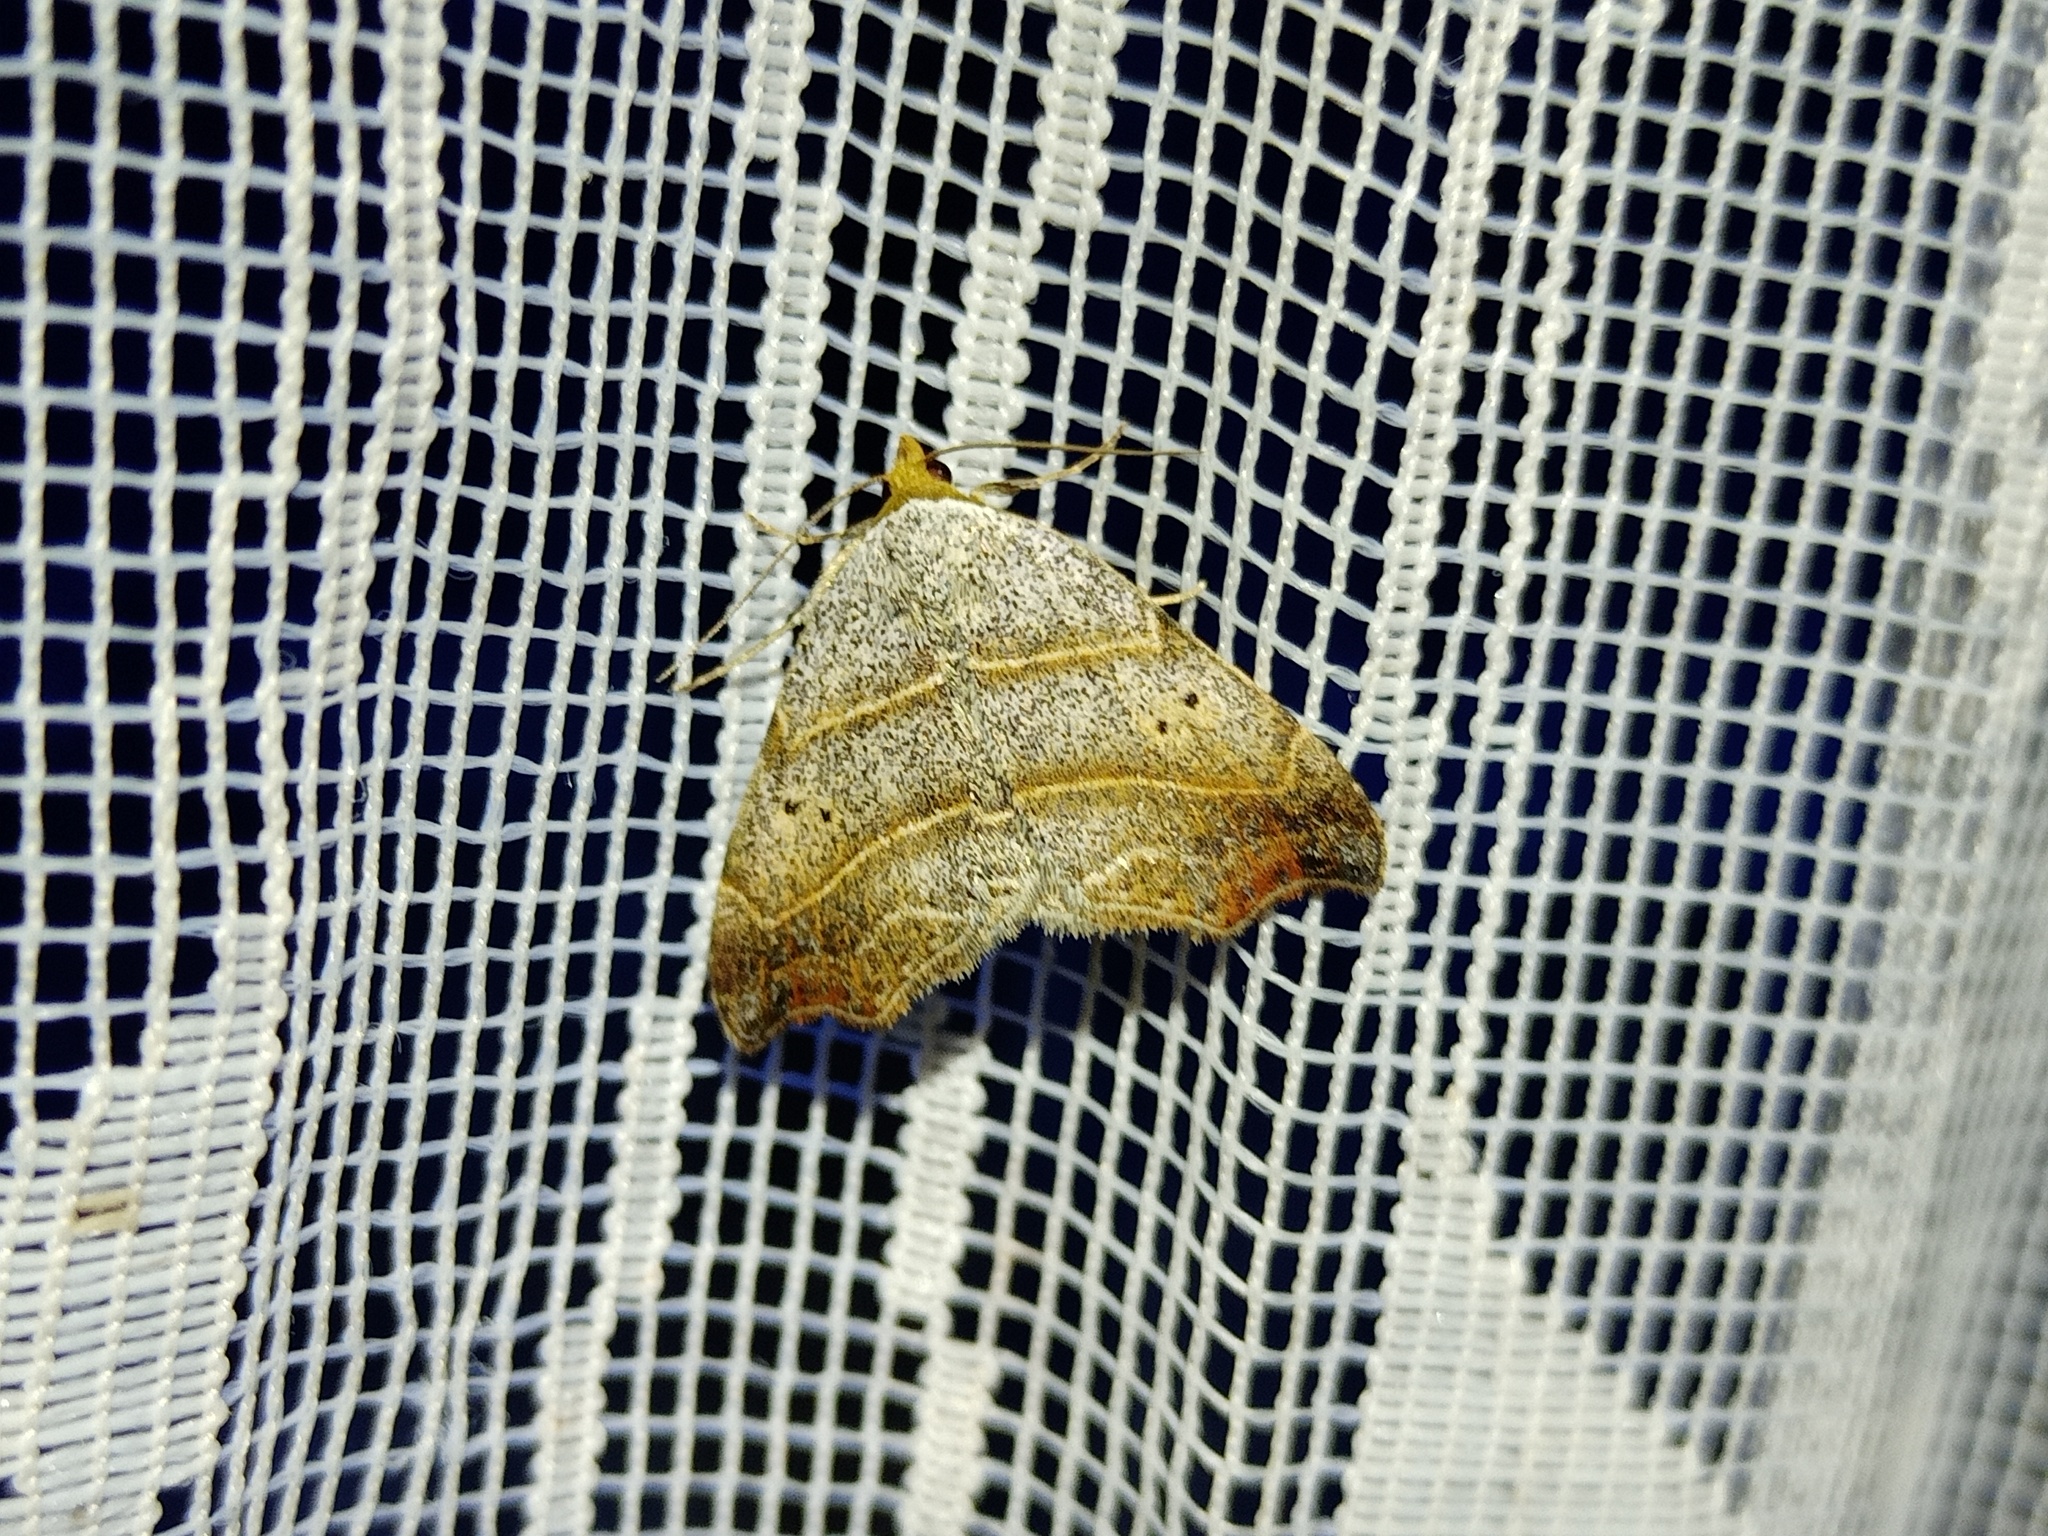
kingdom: Animalia
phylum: Arthropoda
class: Insecta
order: Lepidoptera
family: Erebidae
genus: Laspeyria
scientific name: Laspeyria flexula
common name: Beautiful hook-tip
